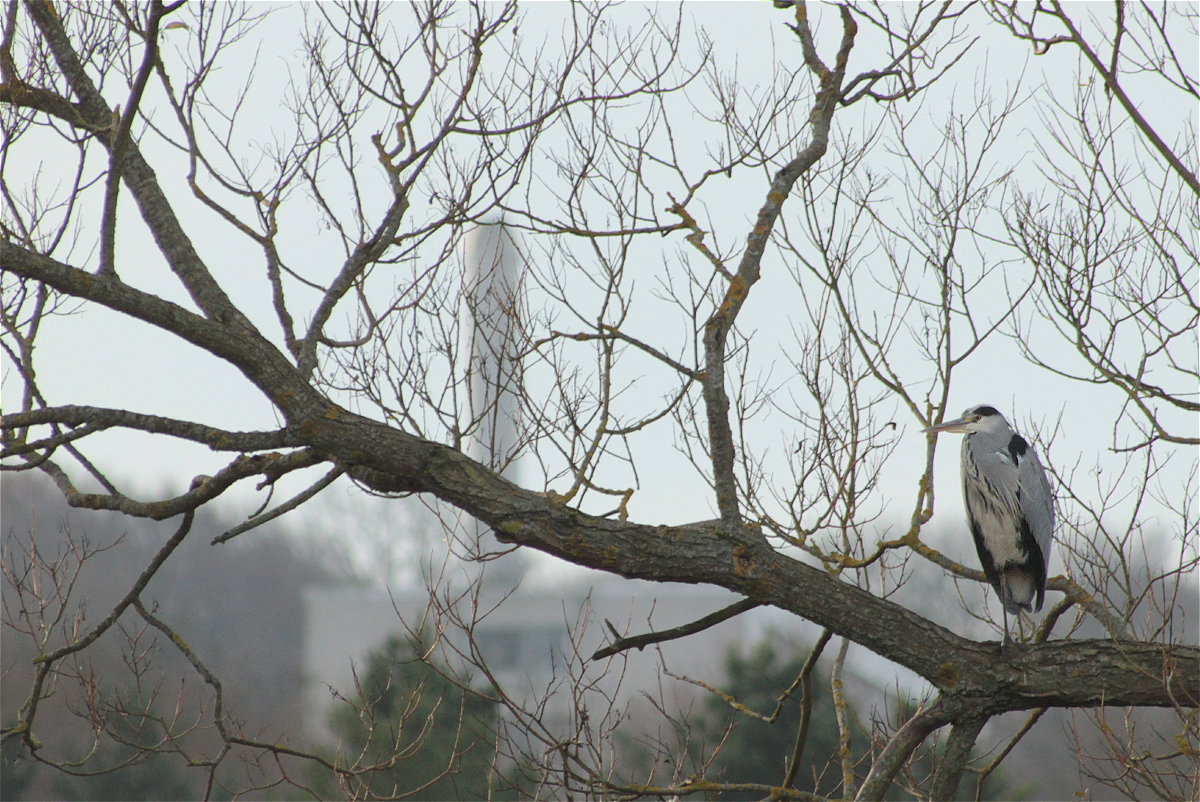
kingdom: Animalia
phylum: Chordata
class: Aves
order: Pelecaniformes
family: Ardeidae
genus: Ardea
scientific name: Ardea cinerea
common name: Grey heron
